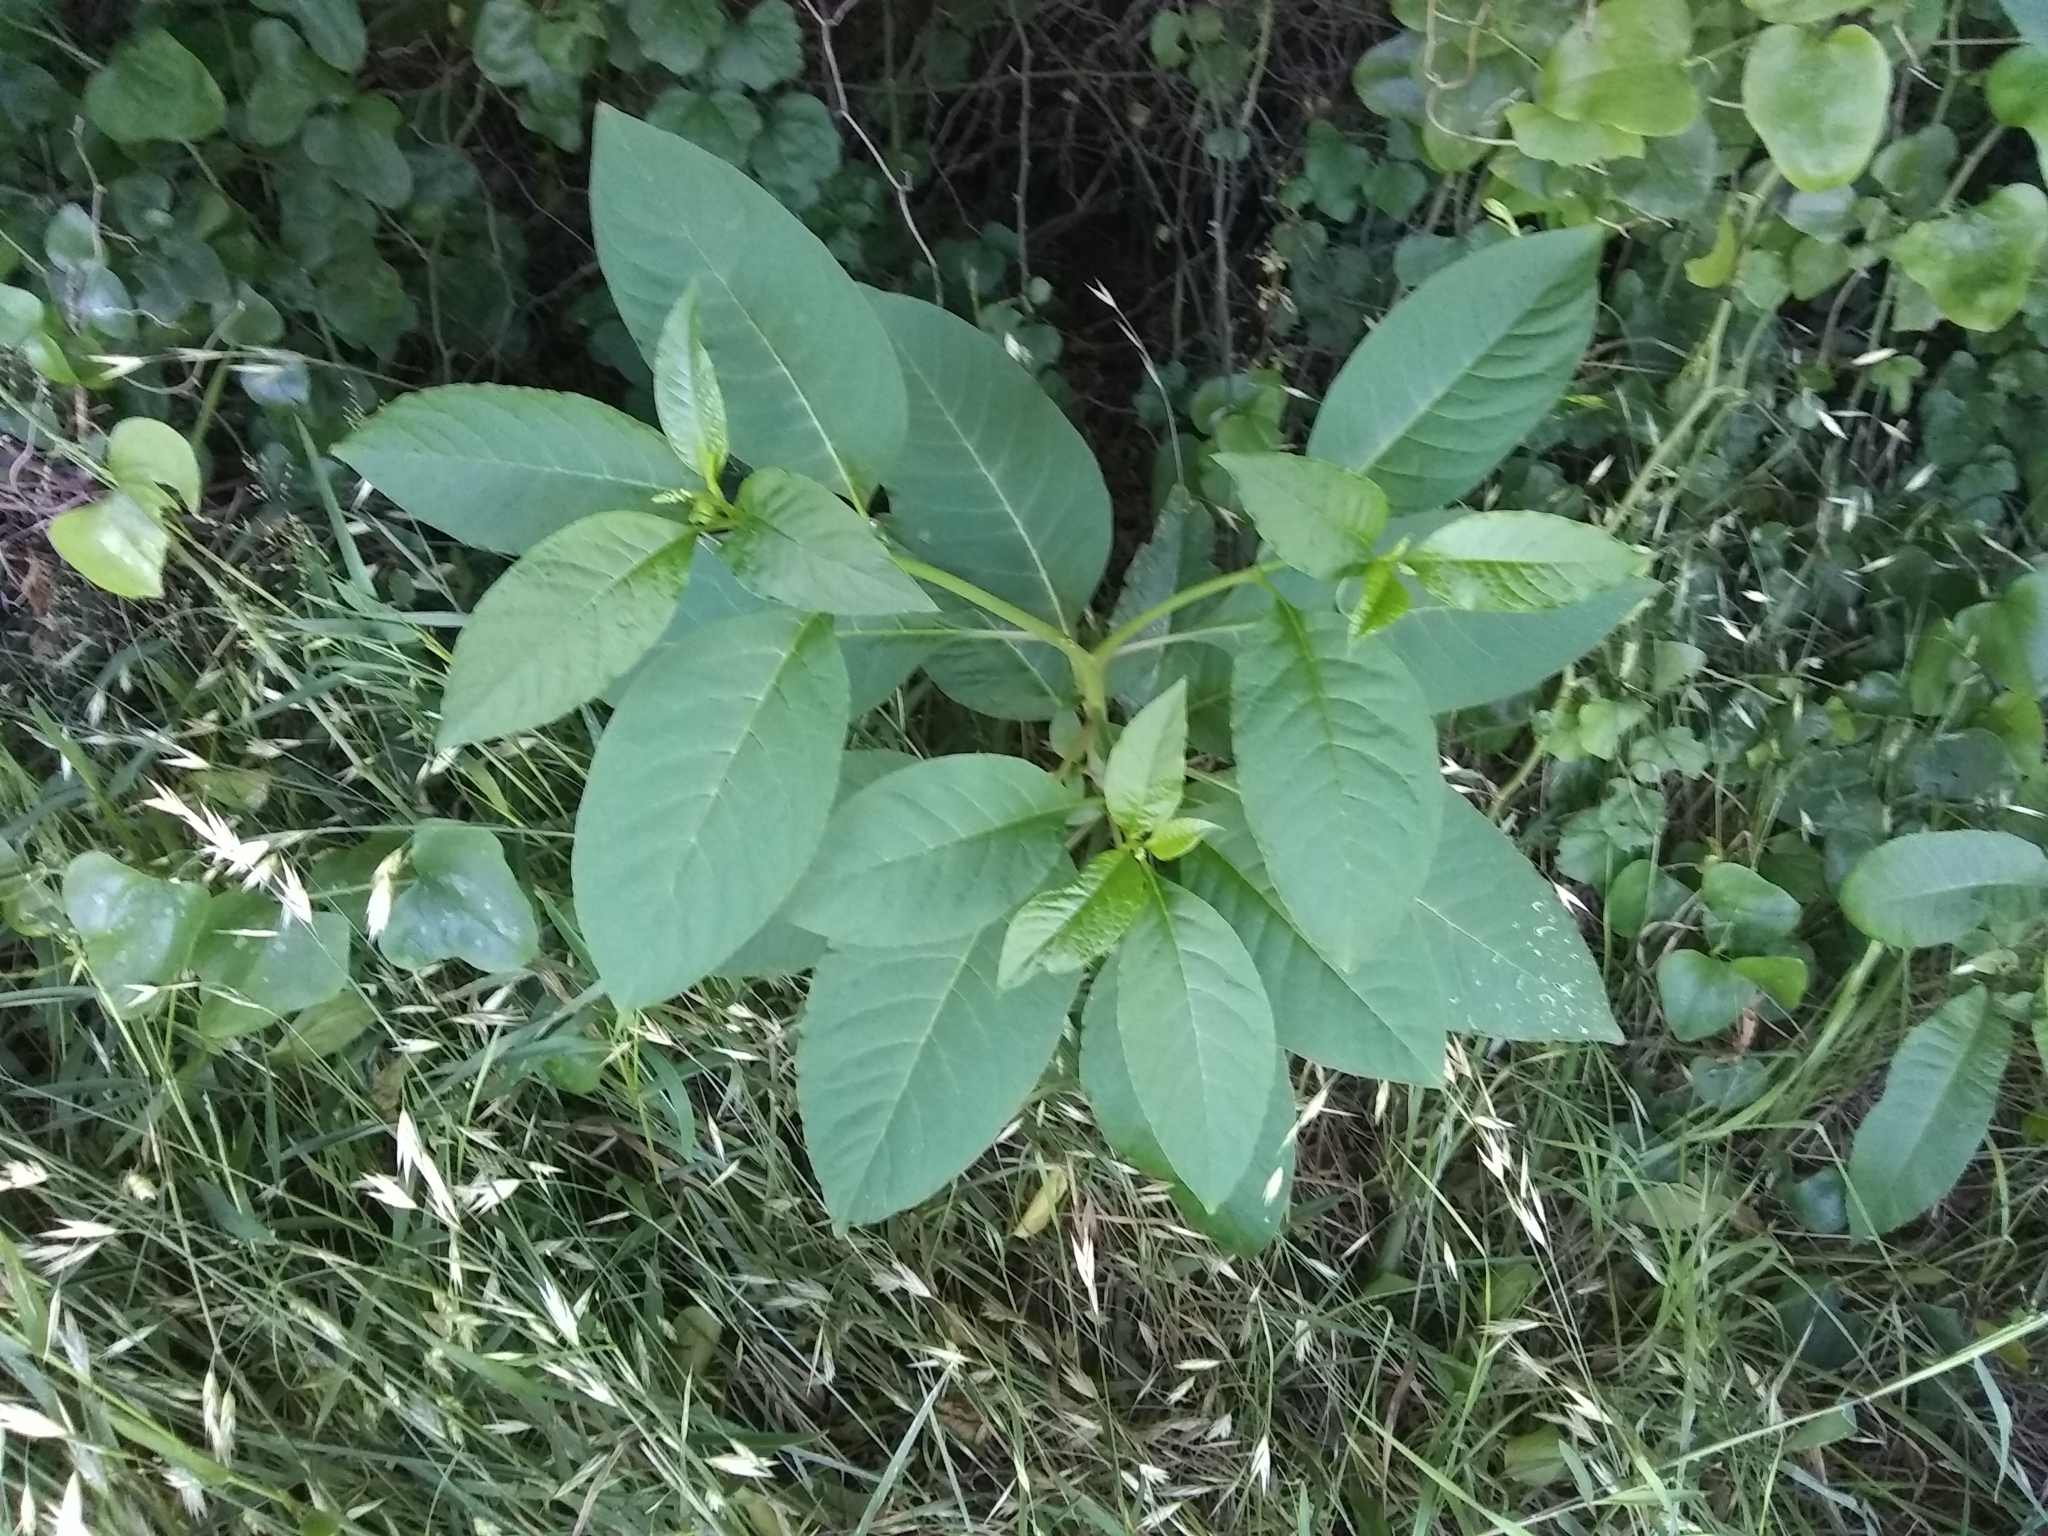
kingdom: Plantae
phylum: Tracheophyta
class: Magnoliopsida
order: Caryophyllales
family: Phytolaccaceae
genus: Phytolacca
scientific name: Phytolacca americana
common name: American pokeweed
